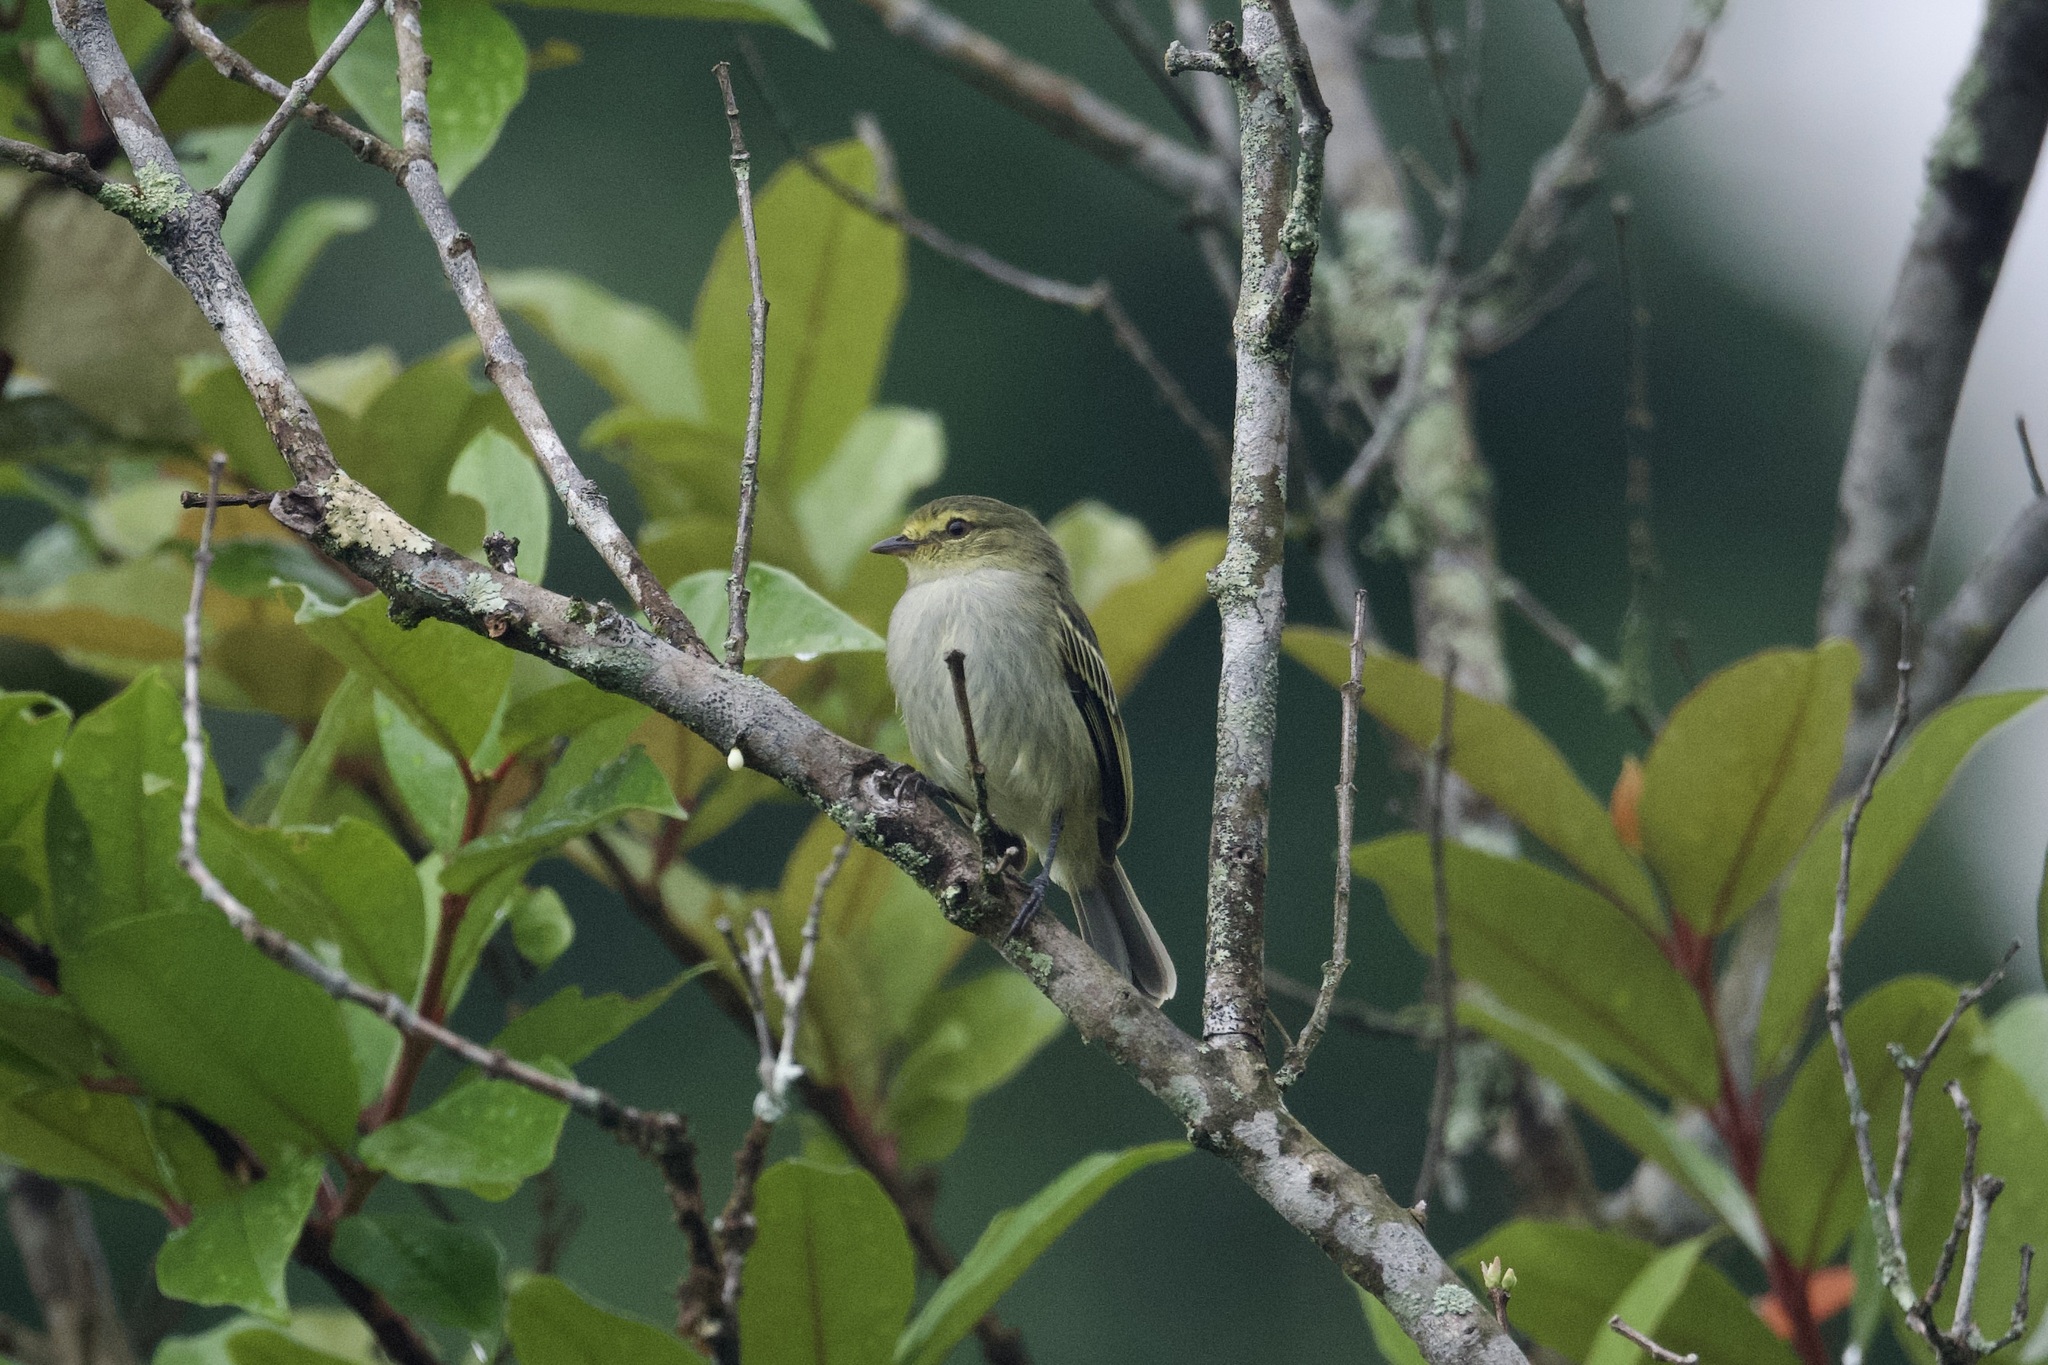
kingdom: Animalia
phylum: Chordata
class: Aves
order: Passeriformes
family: Tyrannidae
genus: Zimmerius
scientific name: Zimmerius chrysops
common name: Golden-faced tyrannulet
